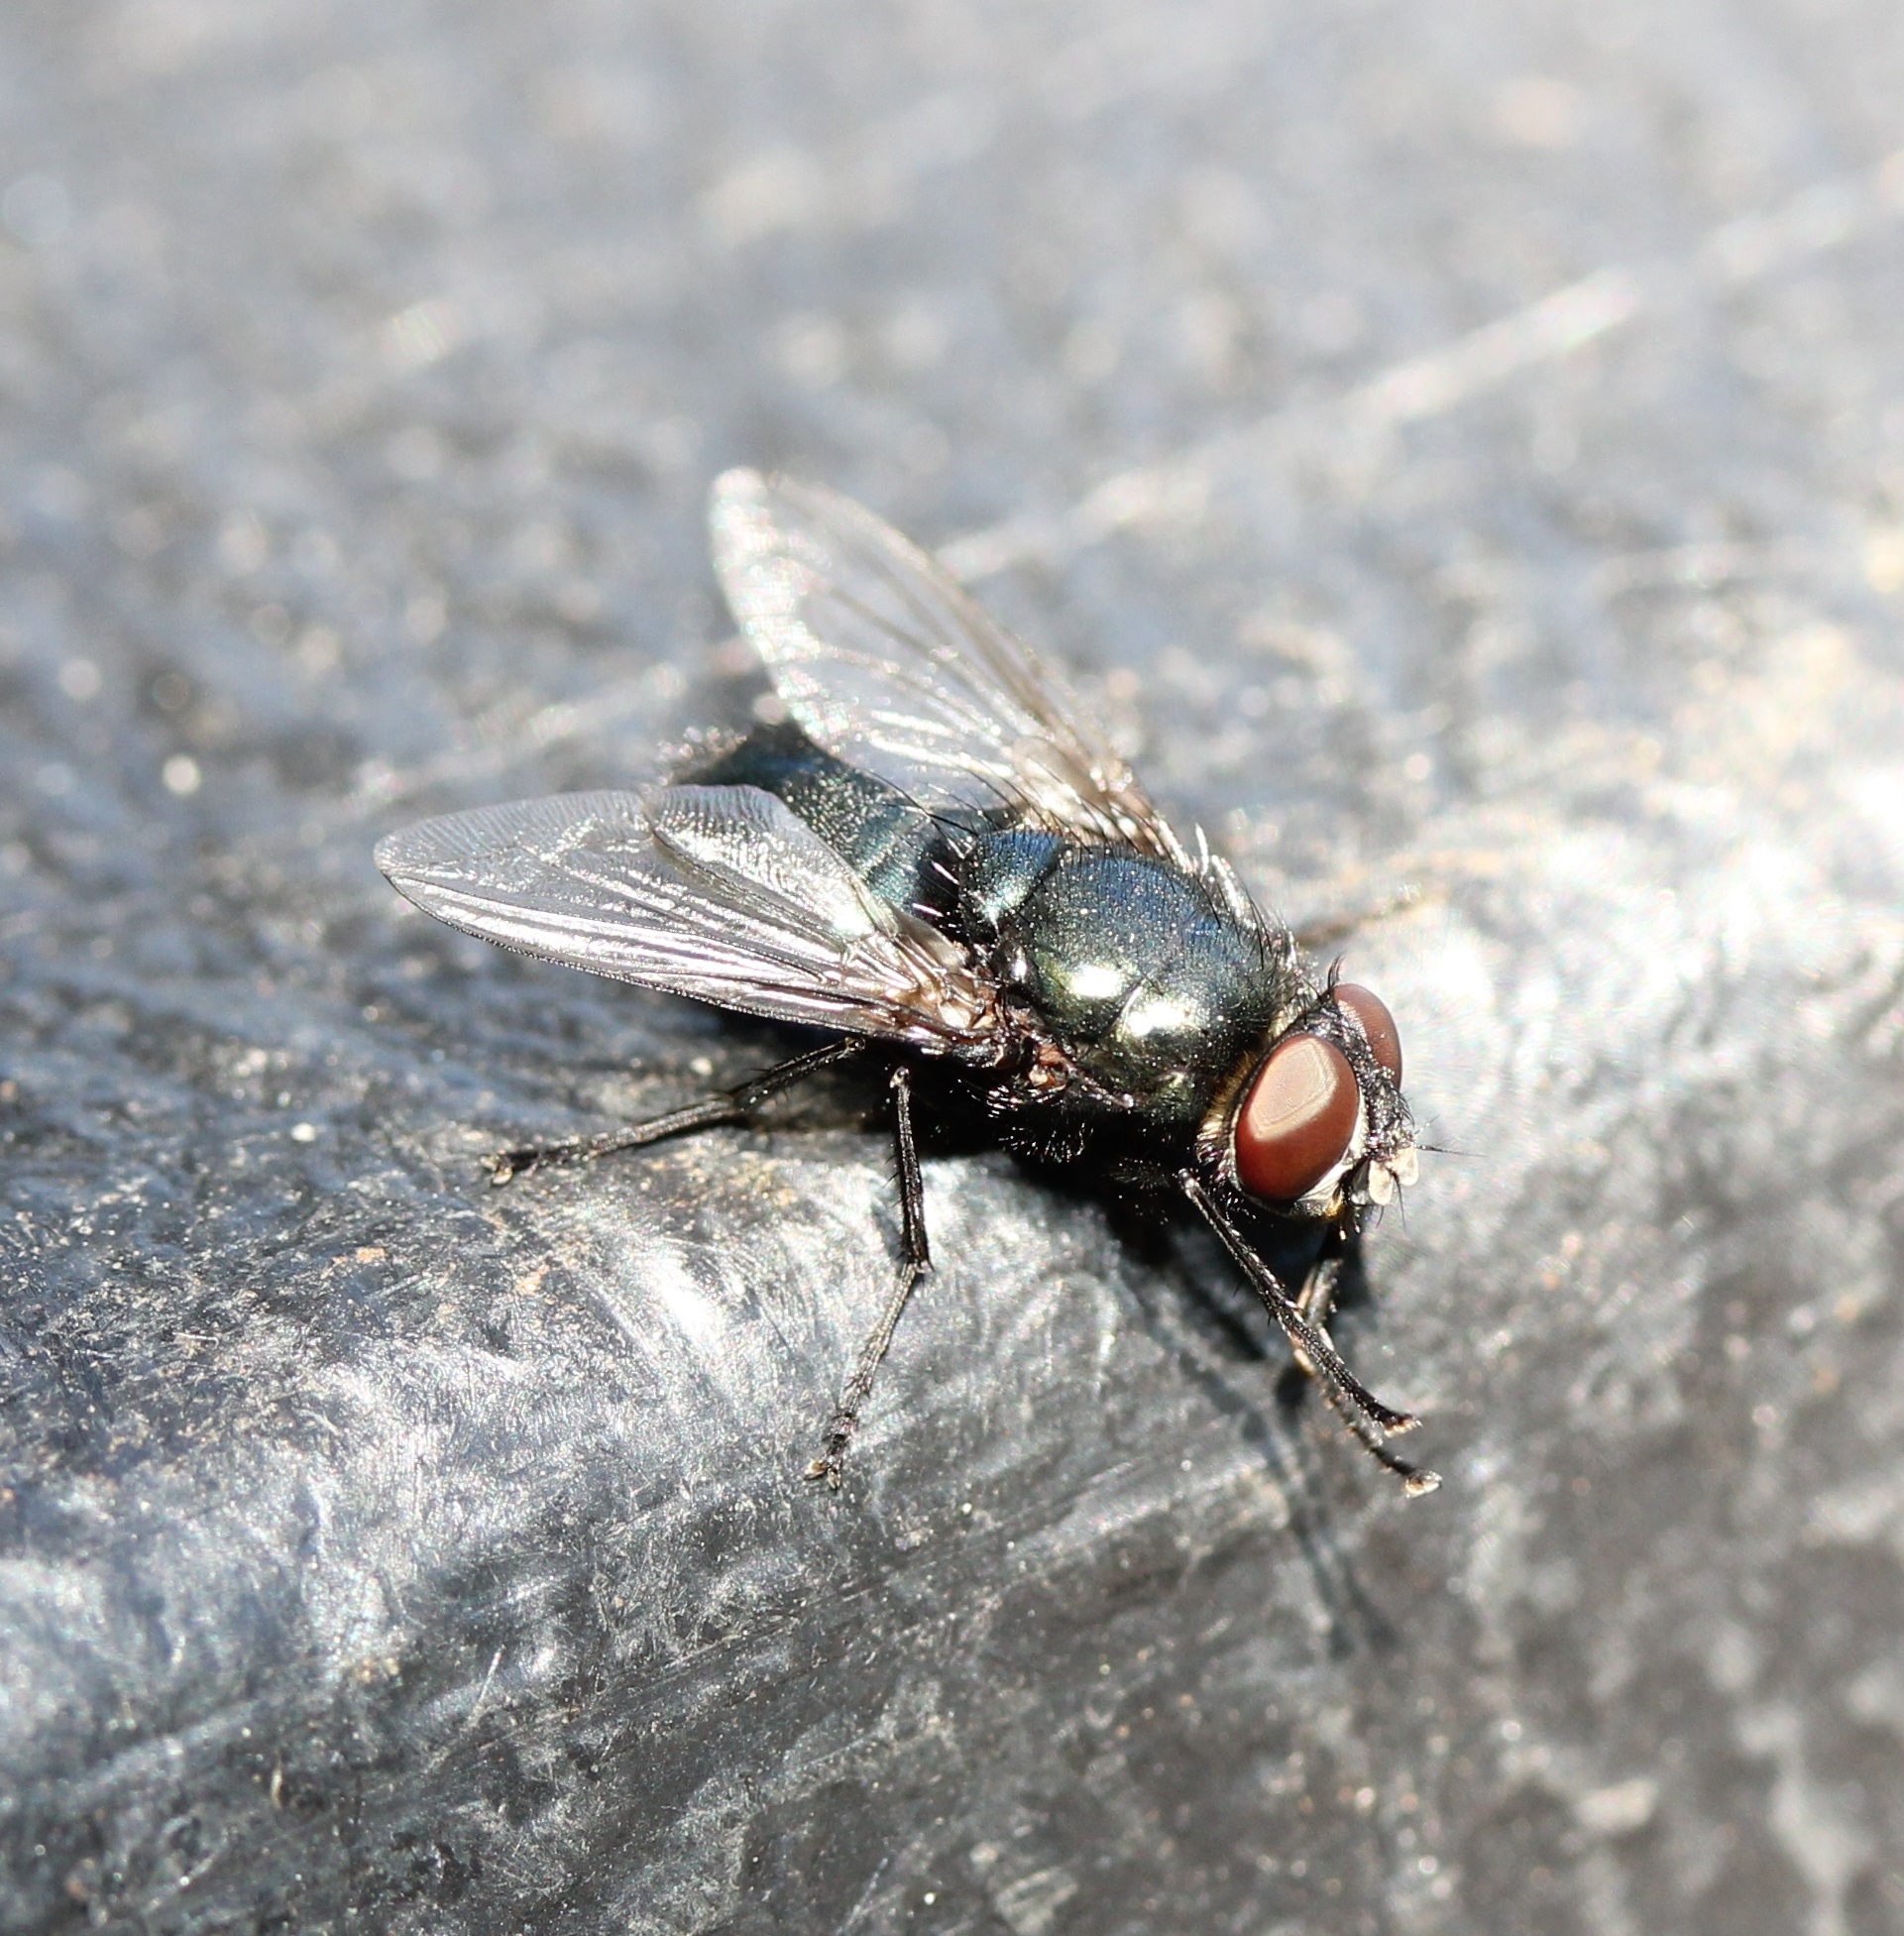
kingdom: Animalia
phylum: Arthropoda
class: Insecta
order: Diptera
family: Calliphoridae
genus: Protophormia
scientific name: Protophormia terraenovae
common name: Blackbottle
